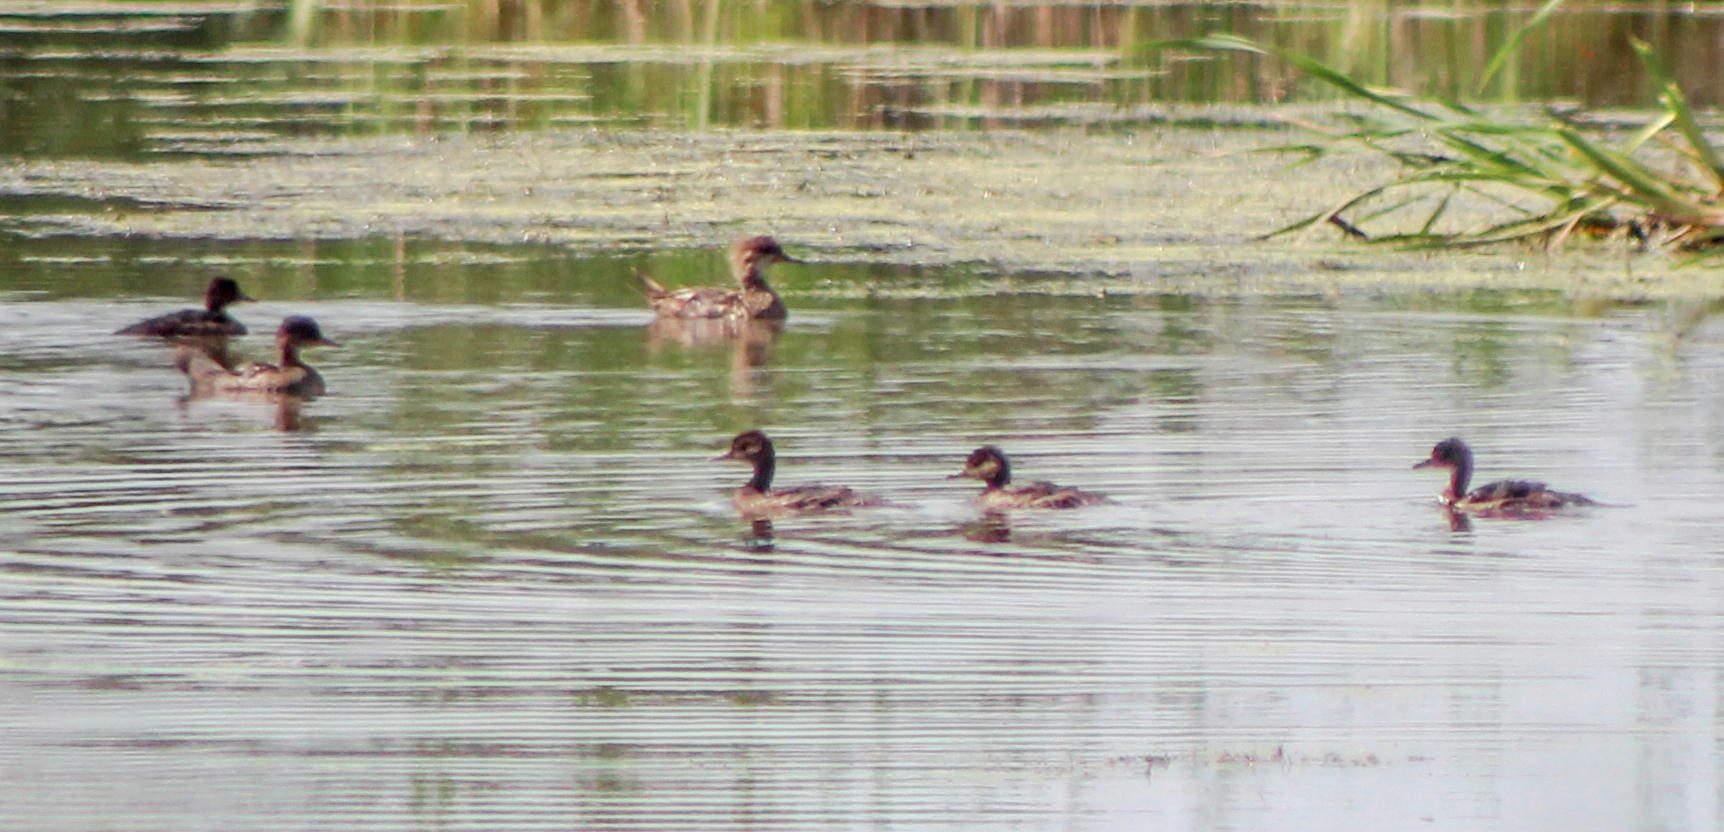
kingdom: Animalia
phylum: Chordata
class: Aves
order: Anseriformes
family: Anatidae
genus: Lophodytes
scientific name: Lophodytes cucullatus
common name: Hooded merganser
